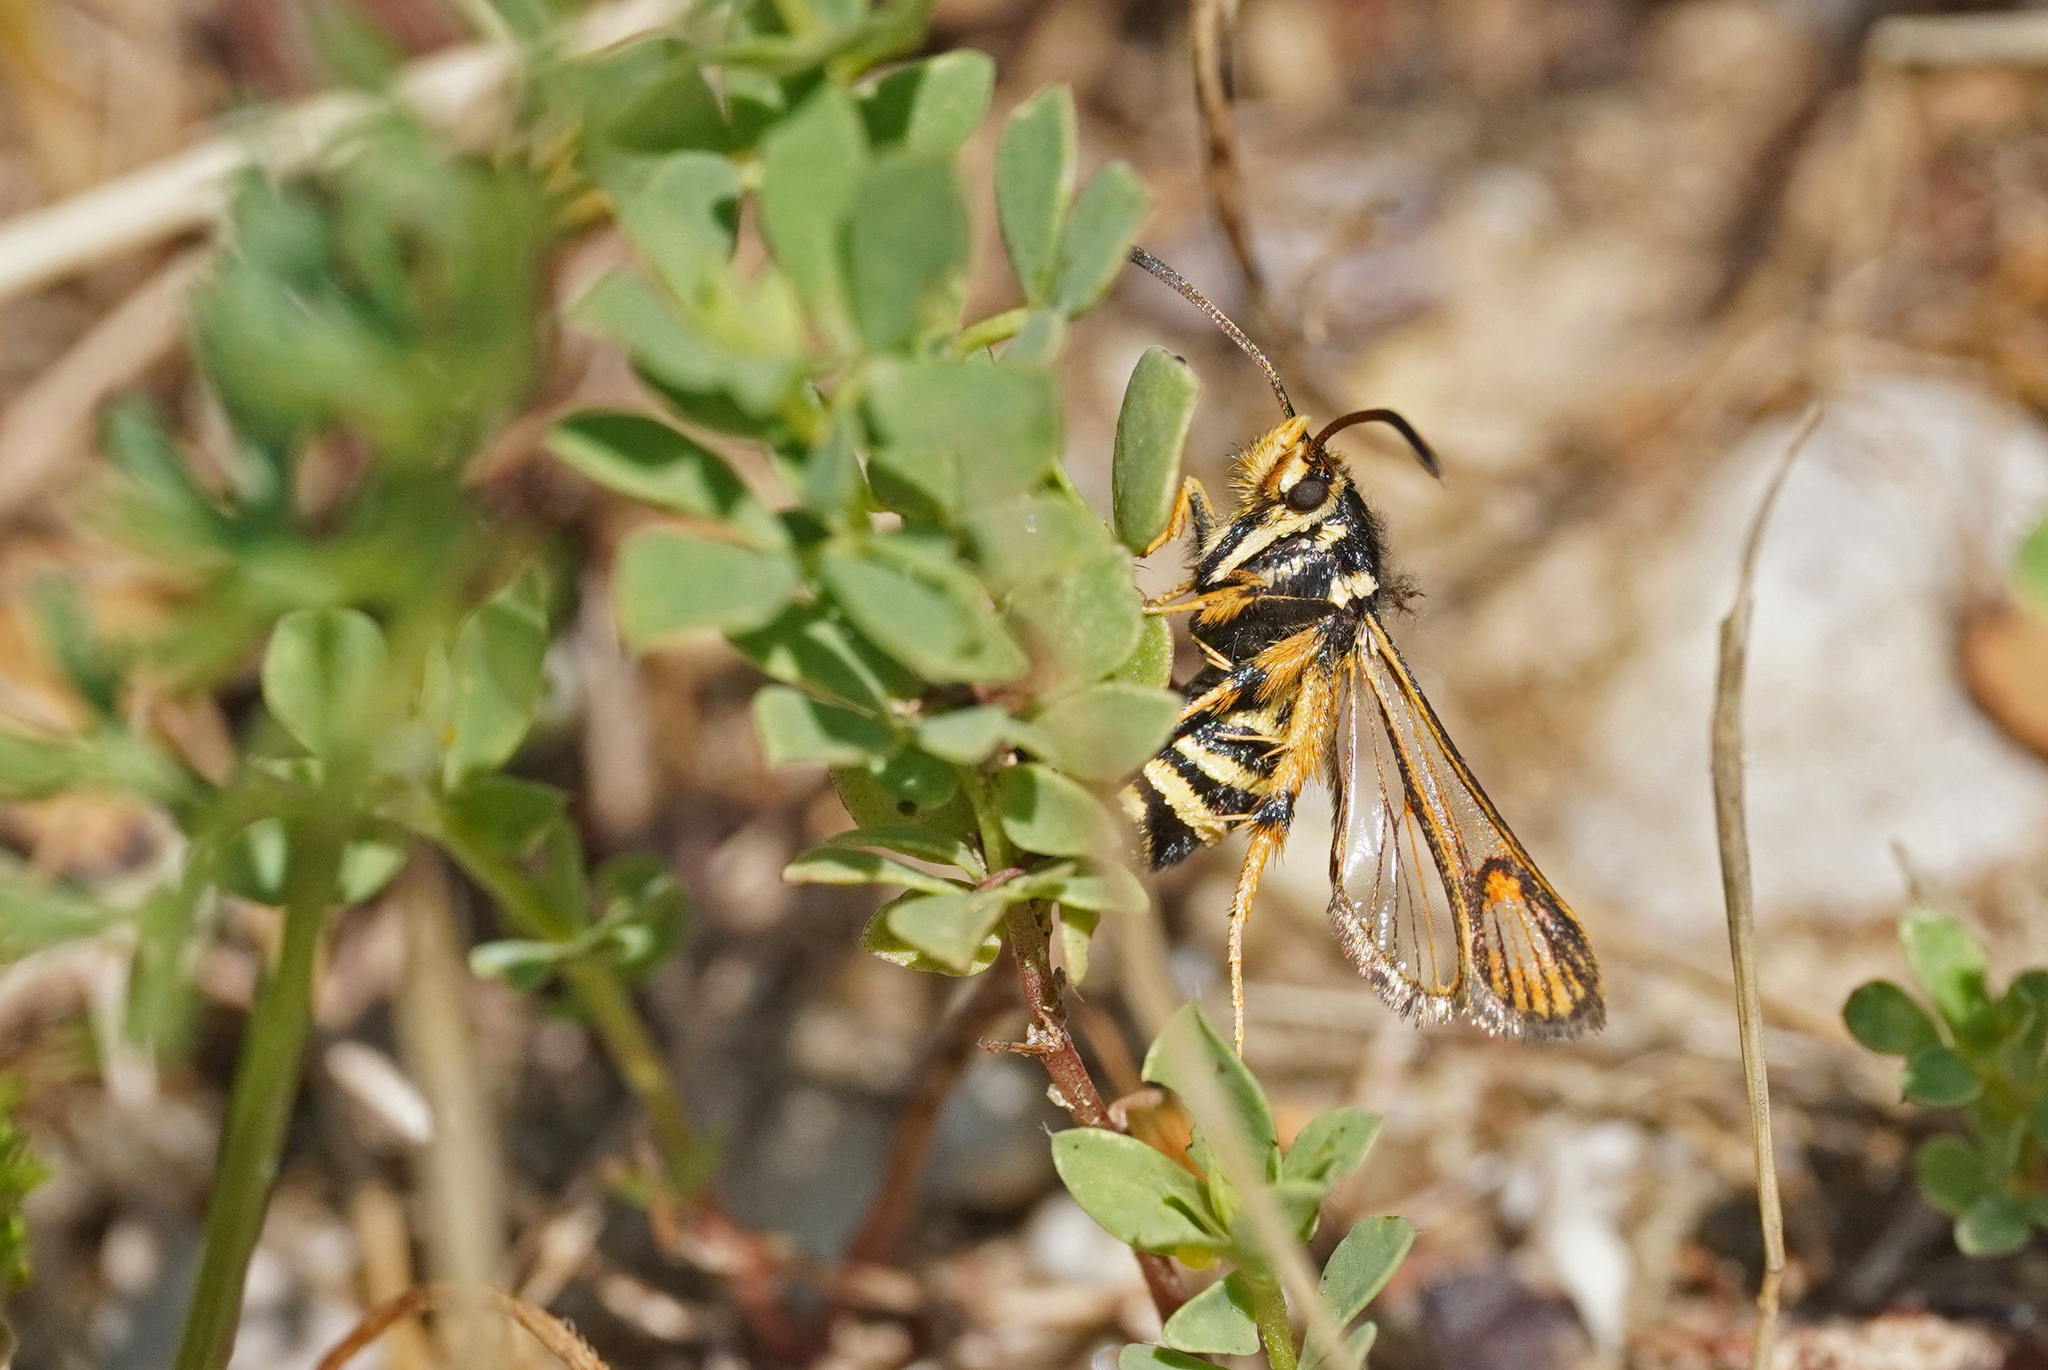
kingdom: Animalia
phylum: Arthropoda
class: Insecta
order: Lepidoptera
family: Sesiidae
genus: Bembecia
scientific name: Bembecia ichneumoniformis
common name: Six-belted clearwing
